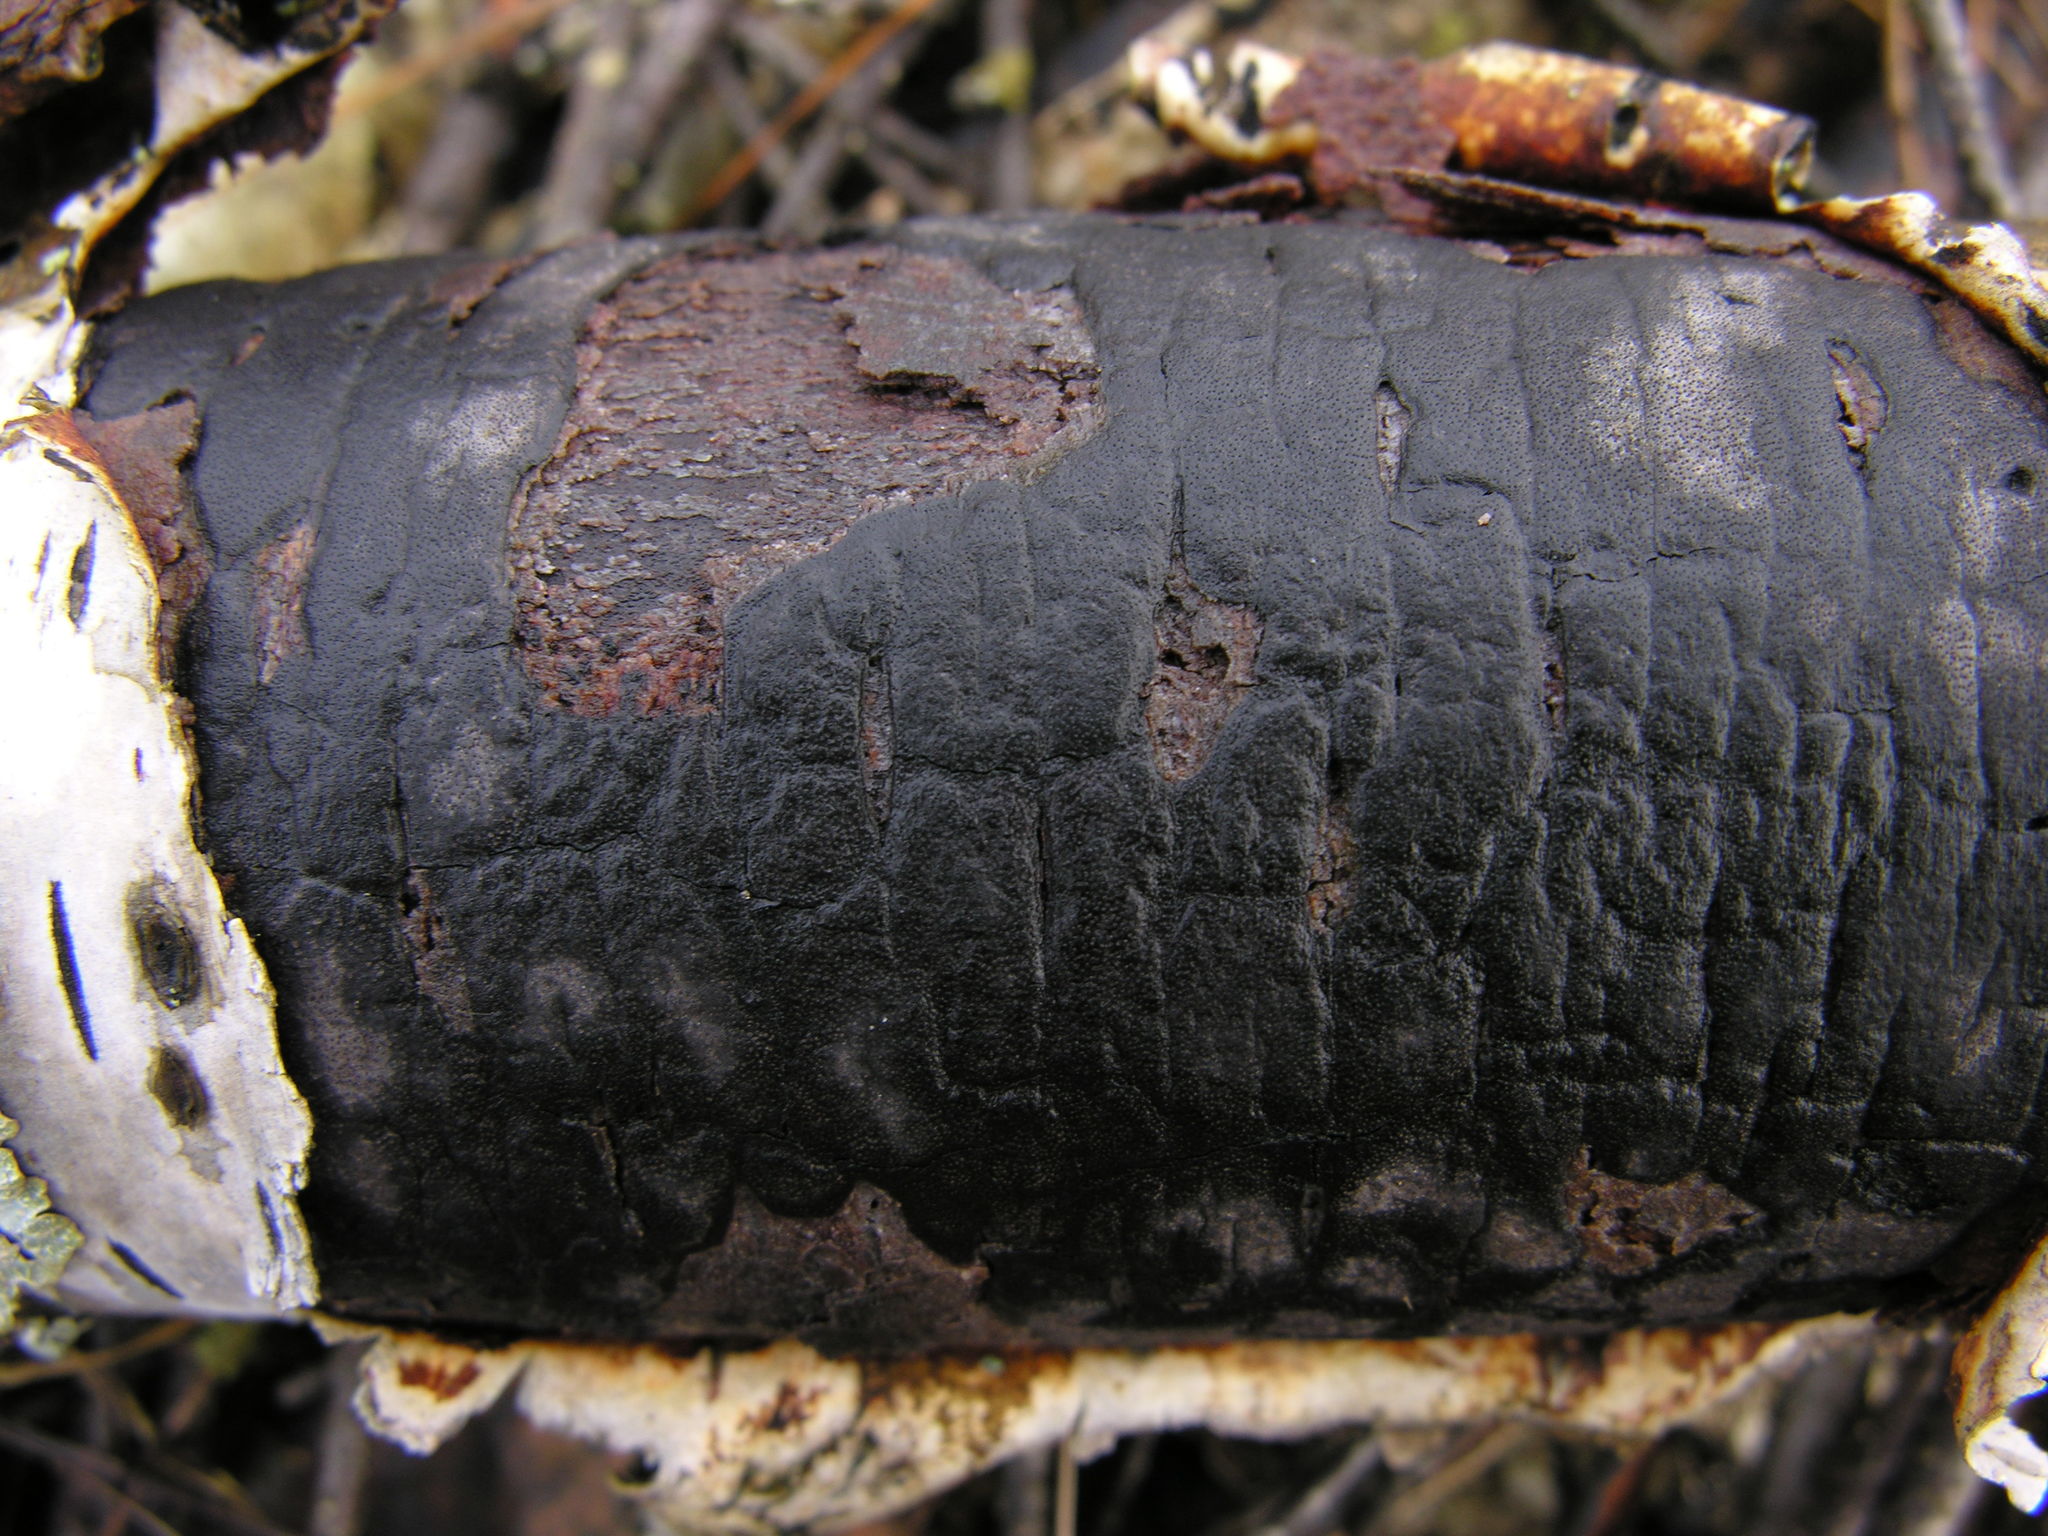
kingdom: Fungi
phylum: Ascomycota
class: Sordariomycetes
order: Xylariales
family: Diatrypaceae
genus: Diatrype
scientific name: Diatrype stigma
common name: Common tarcrust
